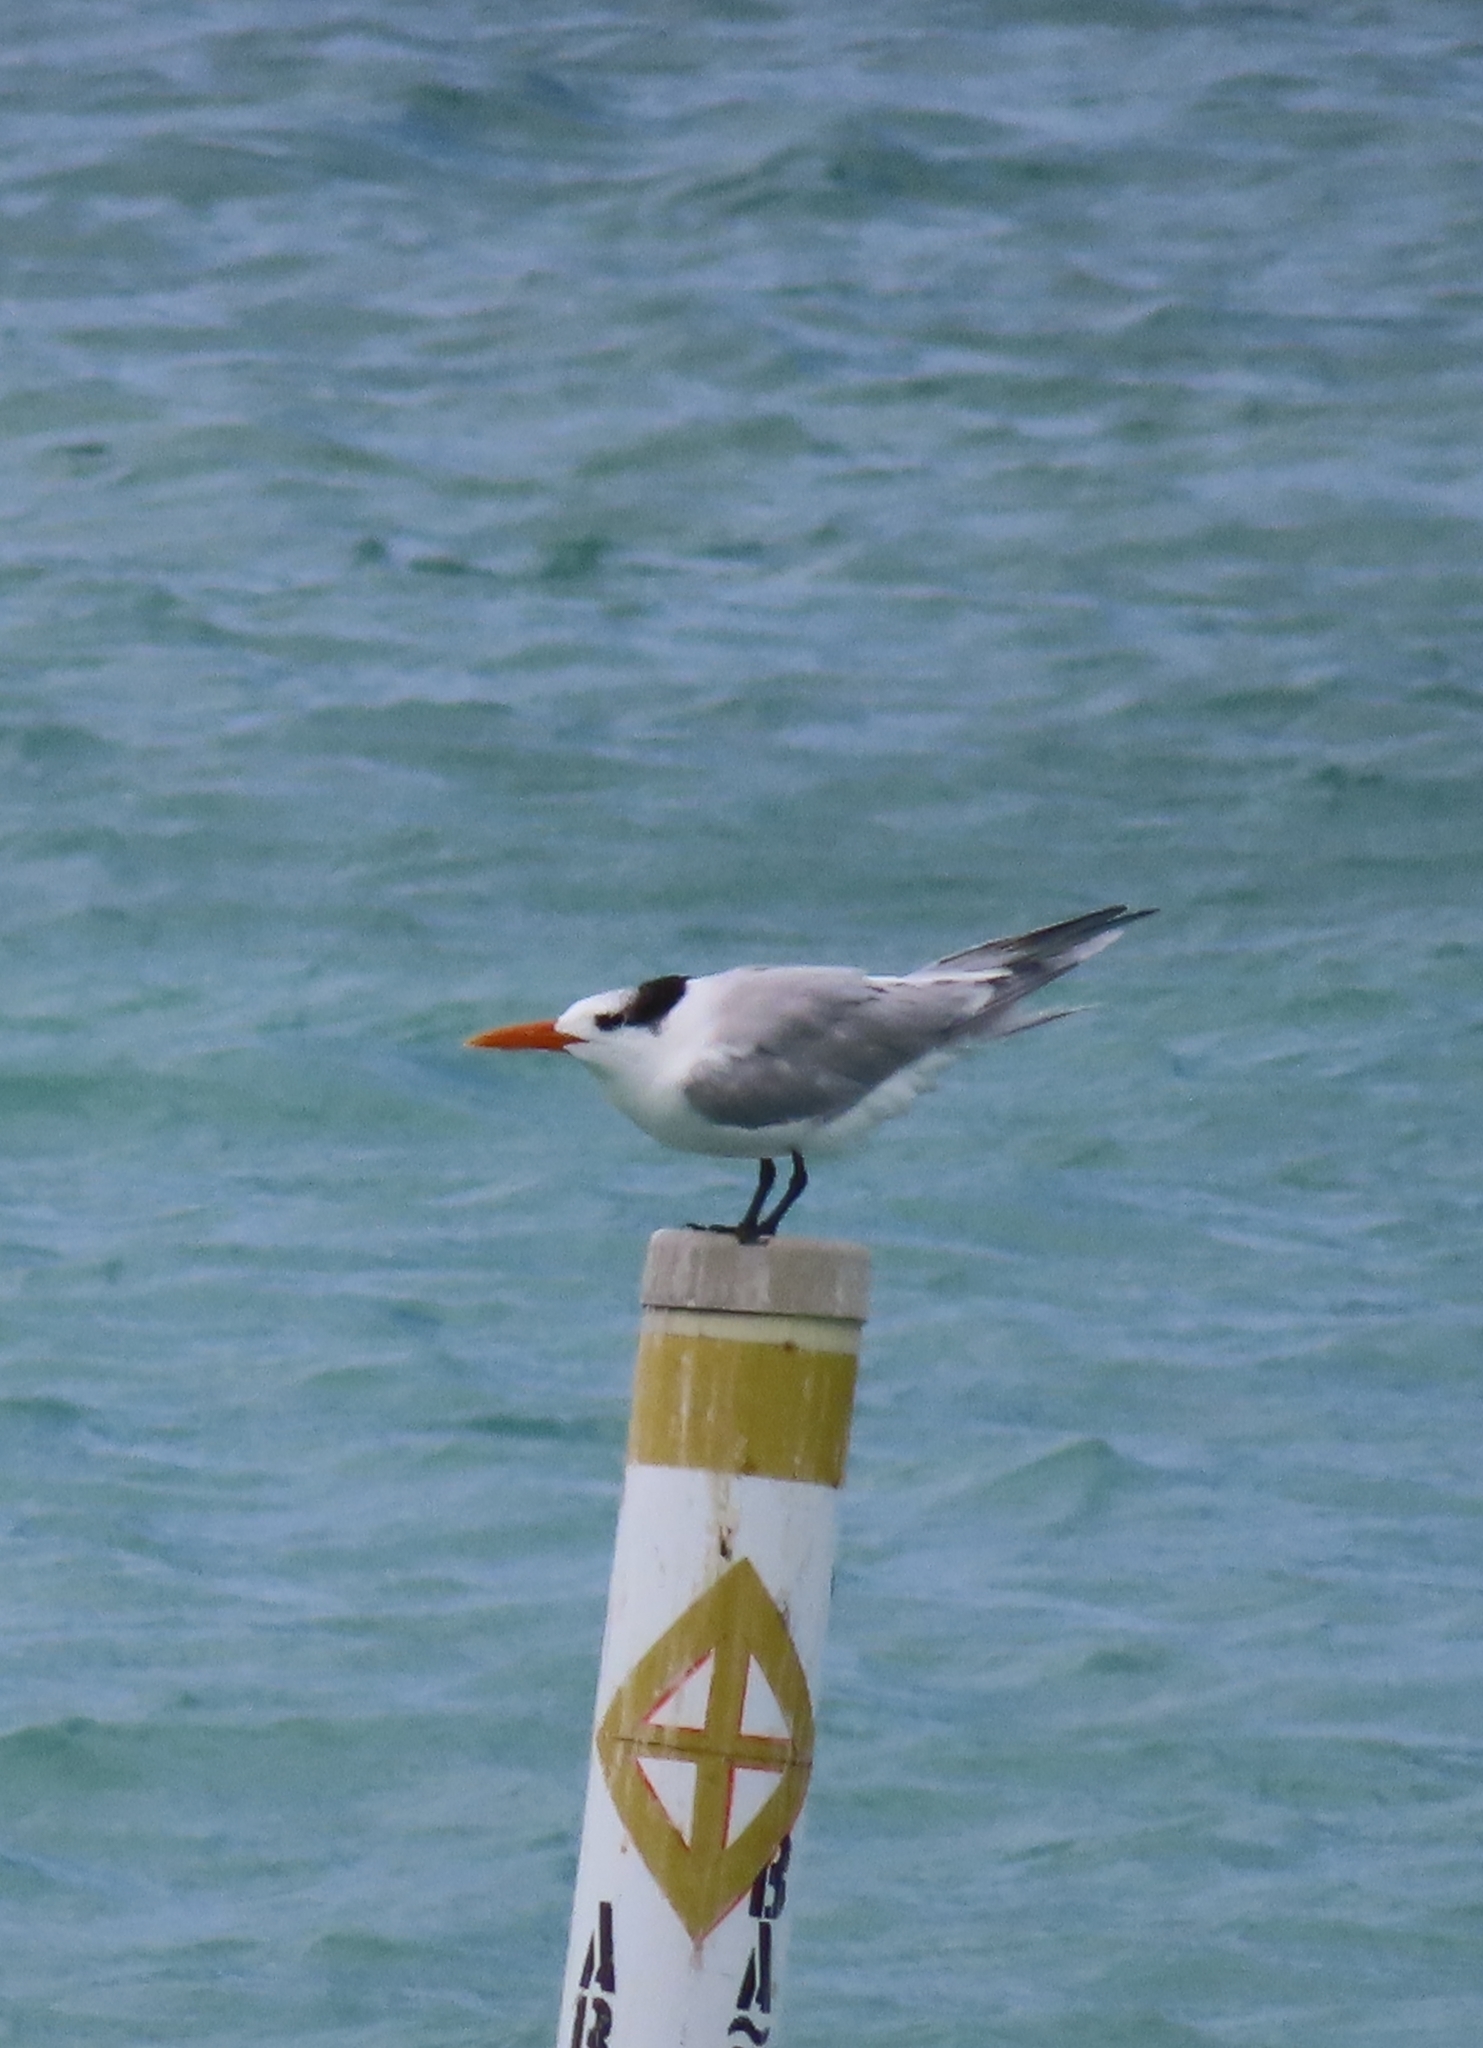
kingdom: Animalia
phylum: Chordata
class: Aves
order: Charadriiformes
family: Laridae
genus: Thalasseus
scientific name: Thalasseus maximus
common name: Royal tern
